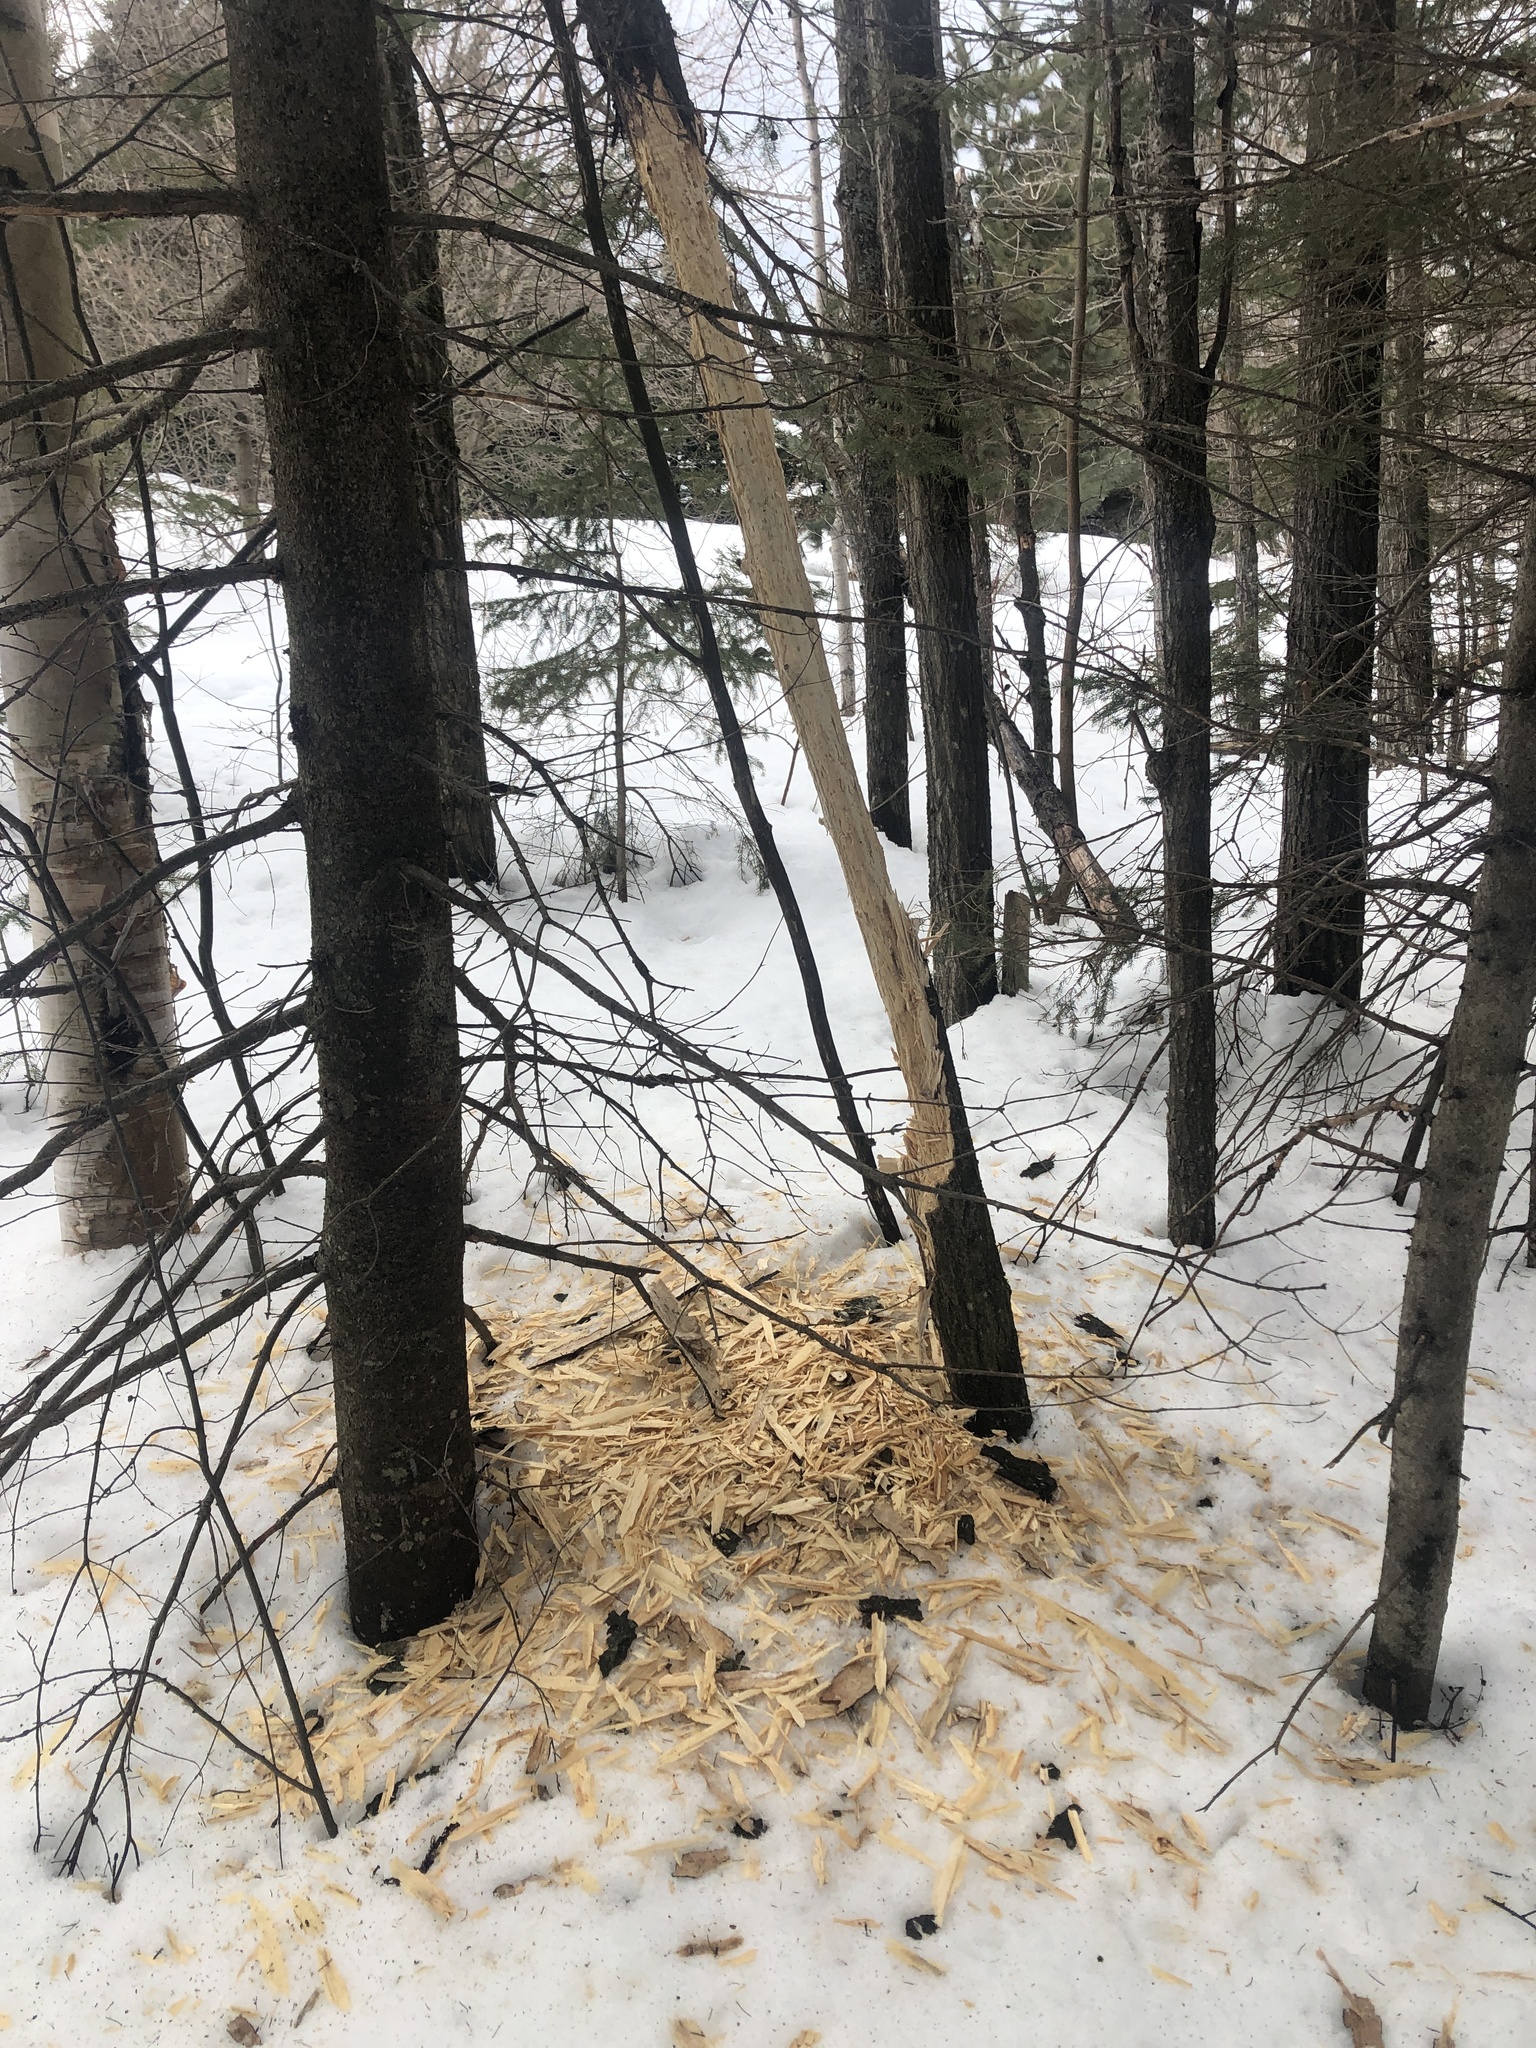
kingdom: Animalia
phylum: Chordata
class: Aves
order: Piciformes
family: Picidae
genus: Dryocopus
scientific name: Dryocopus pileatus
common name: Pileated woodpecker
